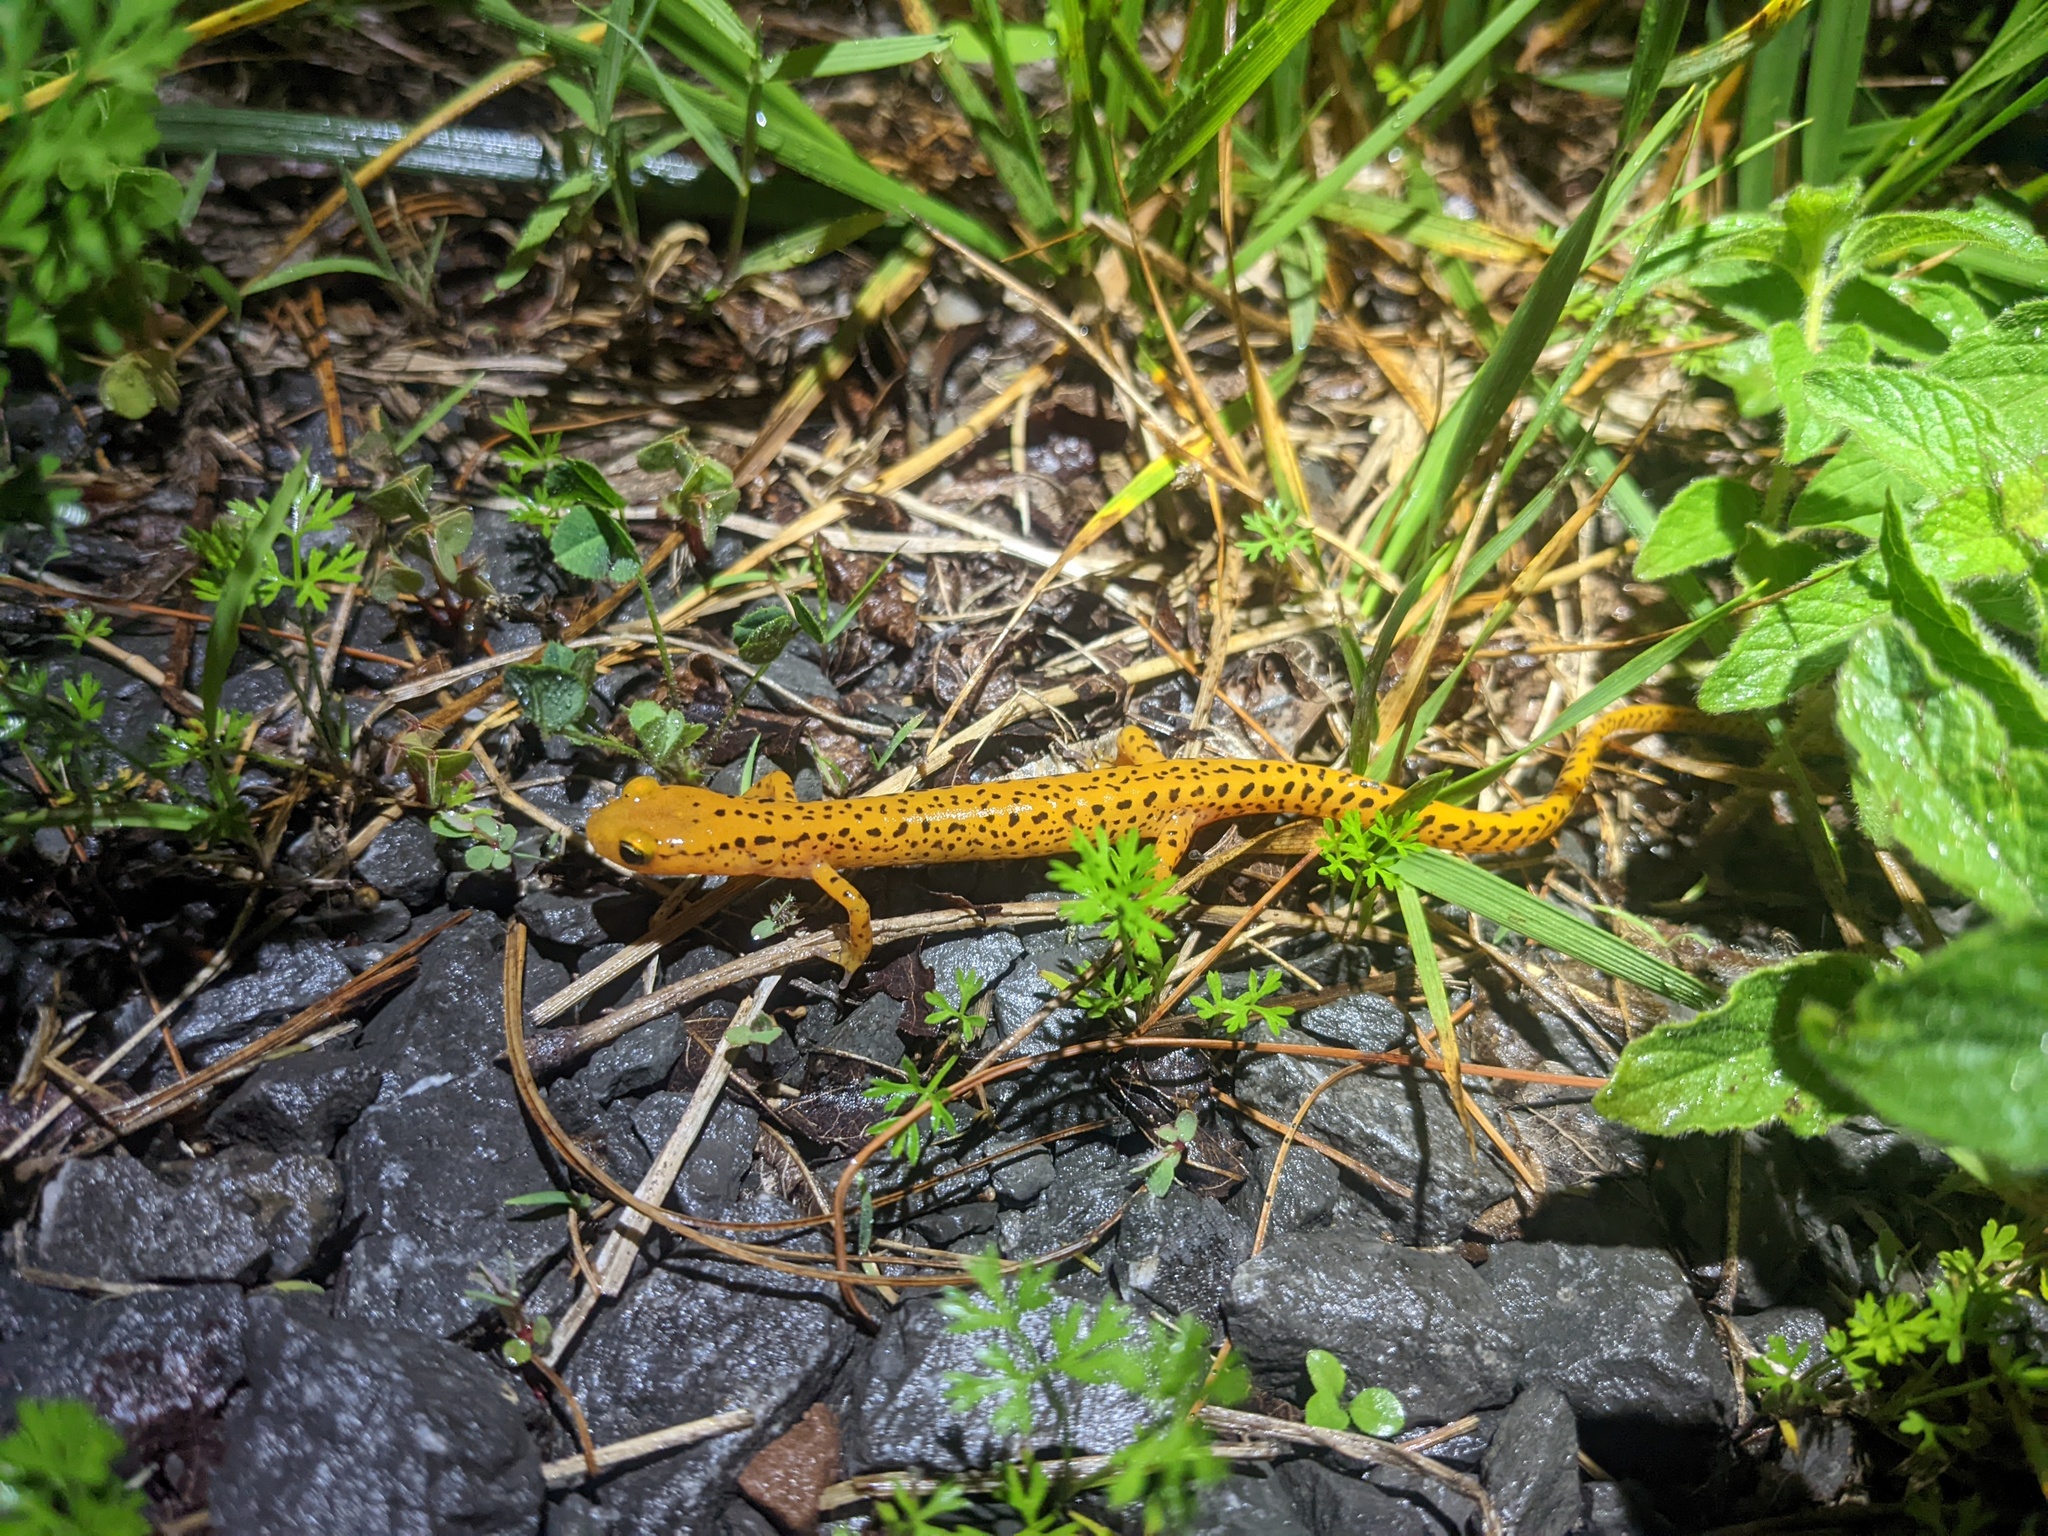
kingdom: Animalia
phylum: Chordata
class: Amphibia
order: Caudata
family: Plethodontidae
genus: Eurycea
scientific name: Eurycea longicauda
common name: Long-tailed salamander
